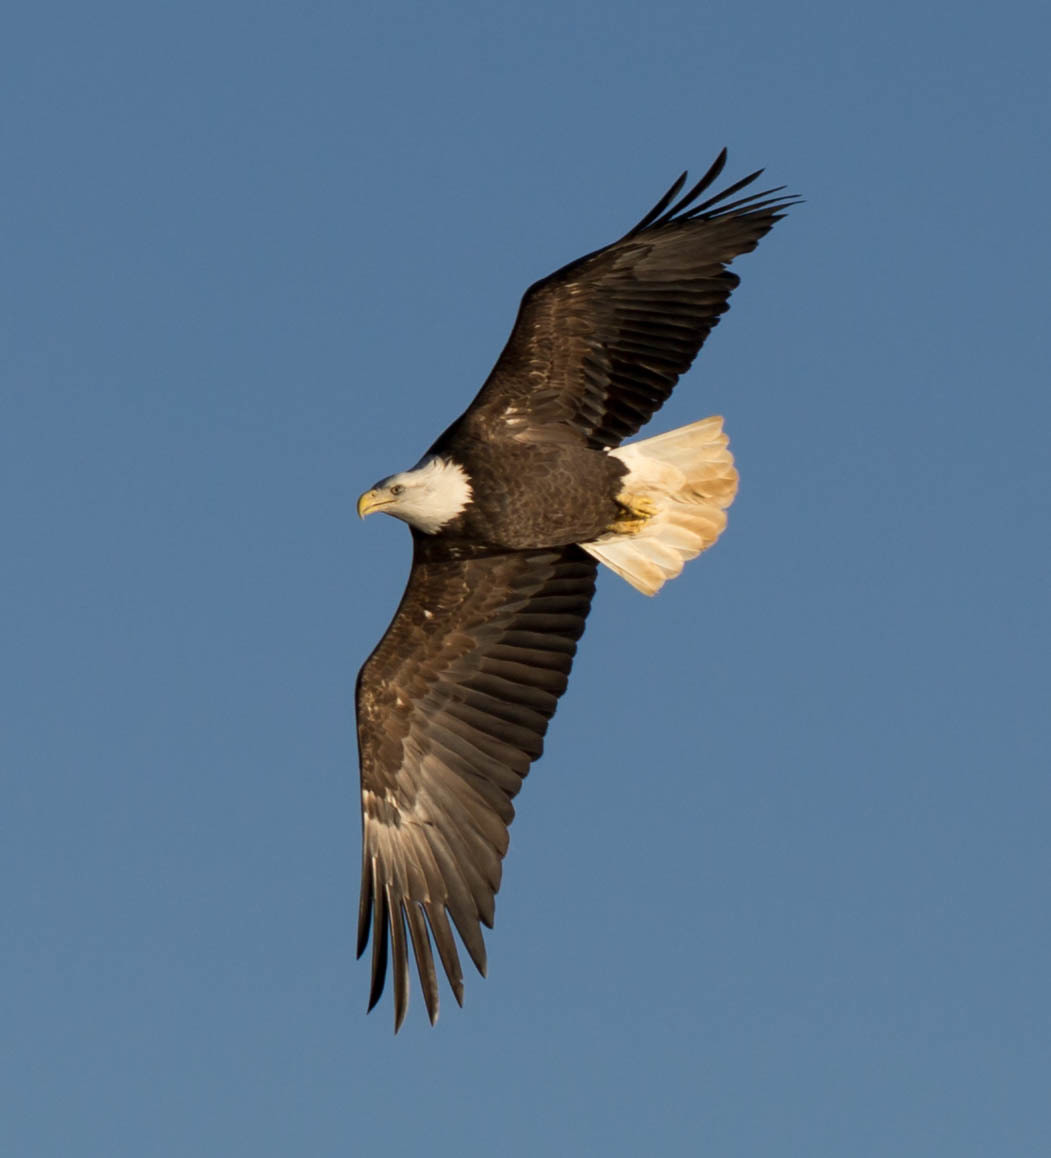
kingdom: Animalia
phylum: Chordata
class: Aves
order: Accipitriformes
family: Accipitridae
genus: Haliaeetus
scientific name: Haliaeetus leucocephalus
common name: Bald eagle
